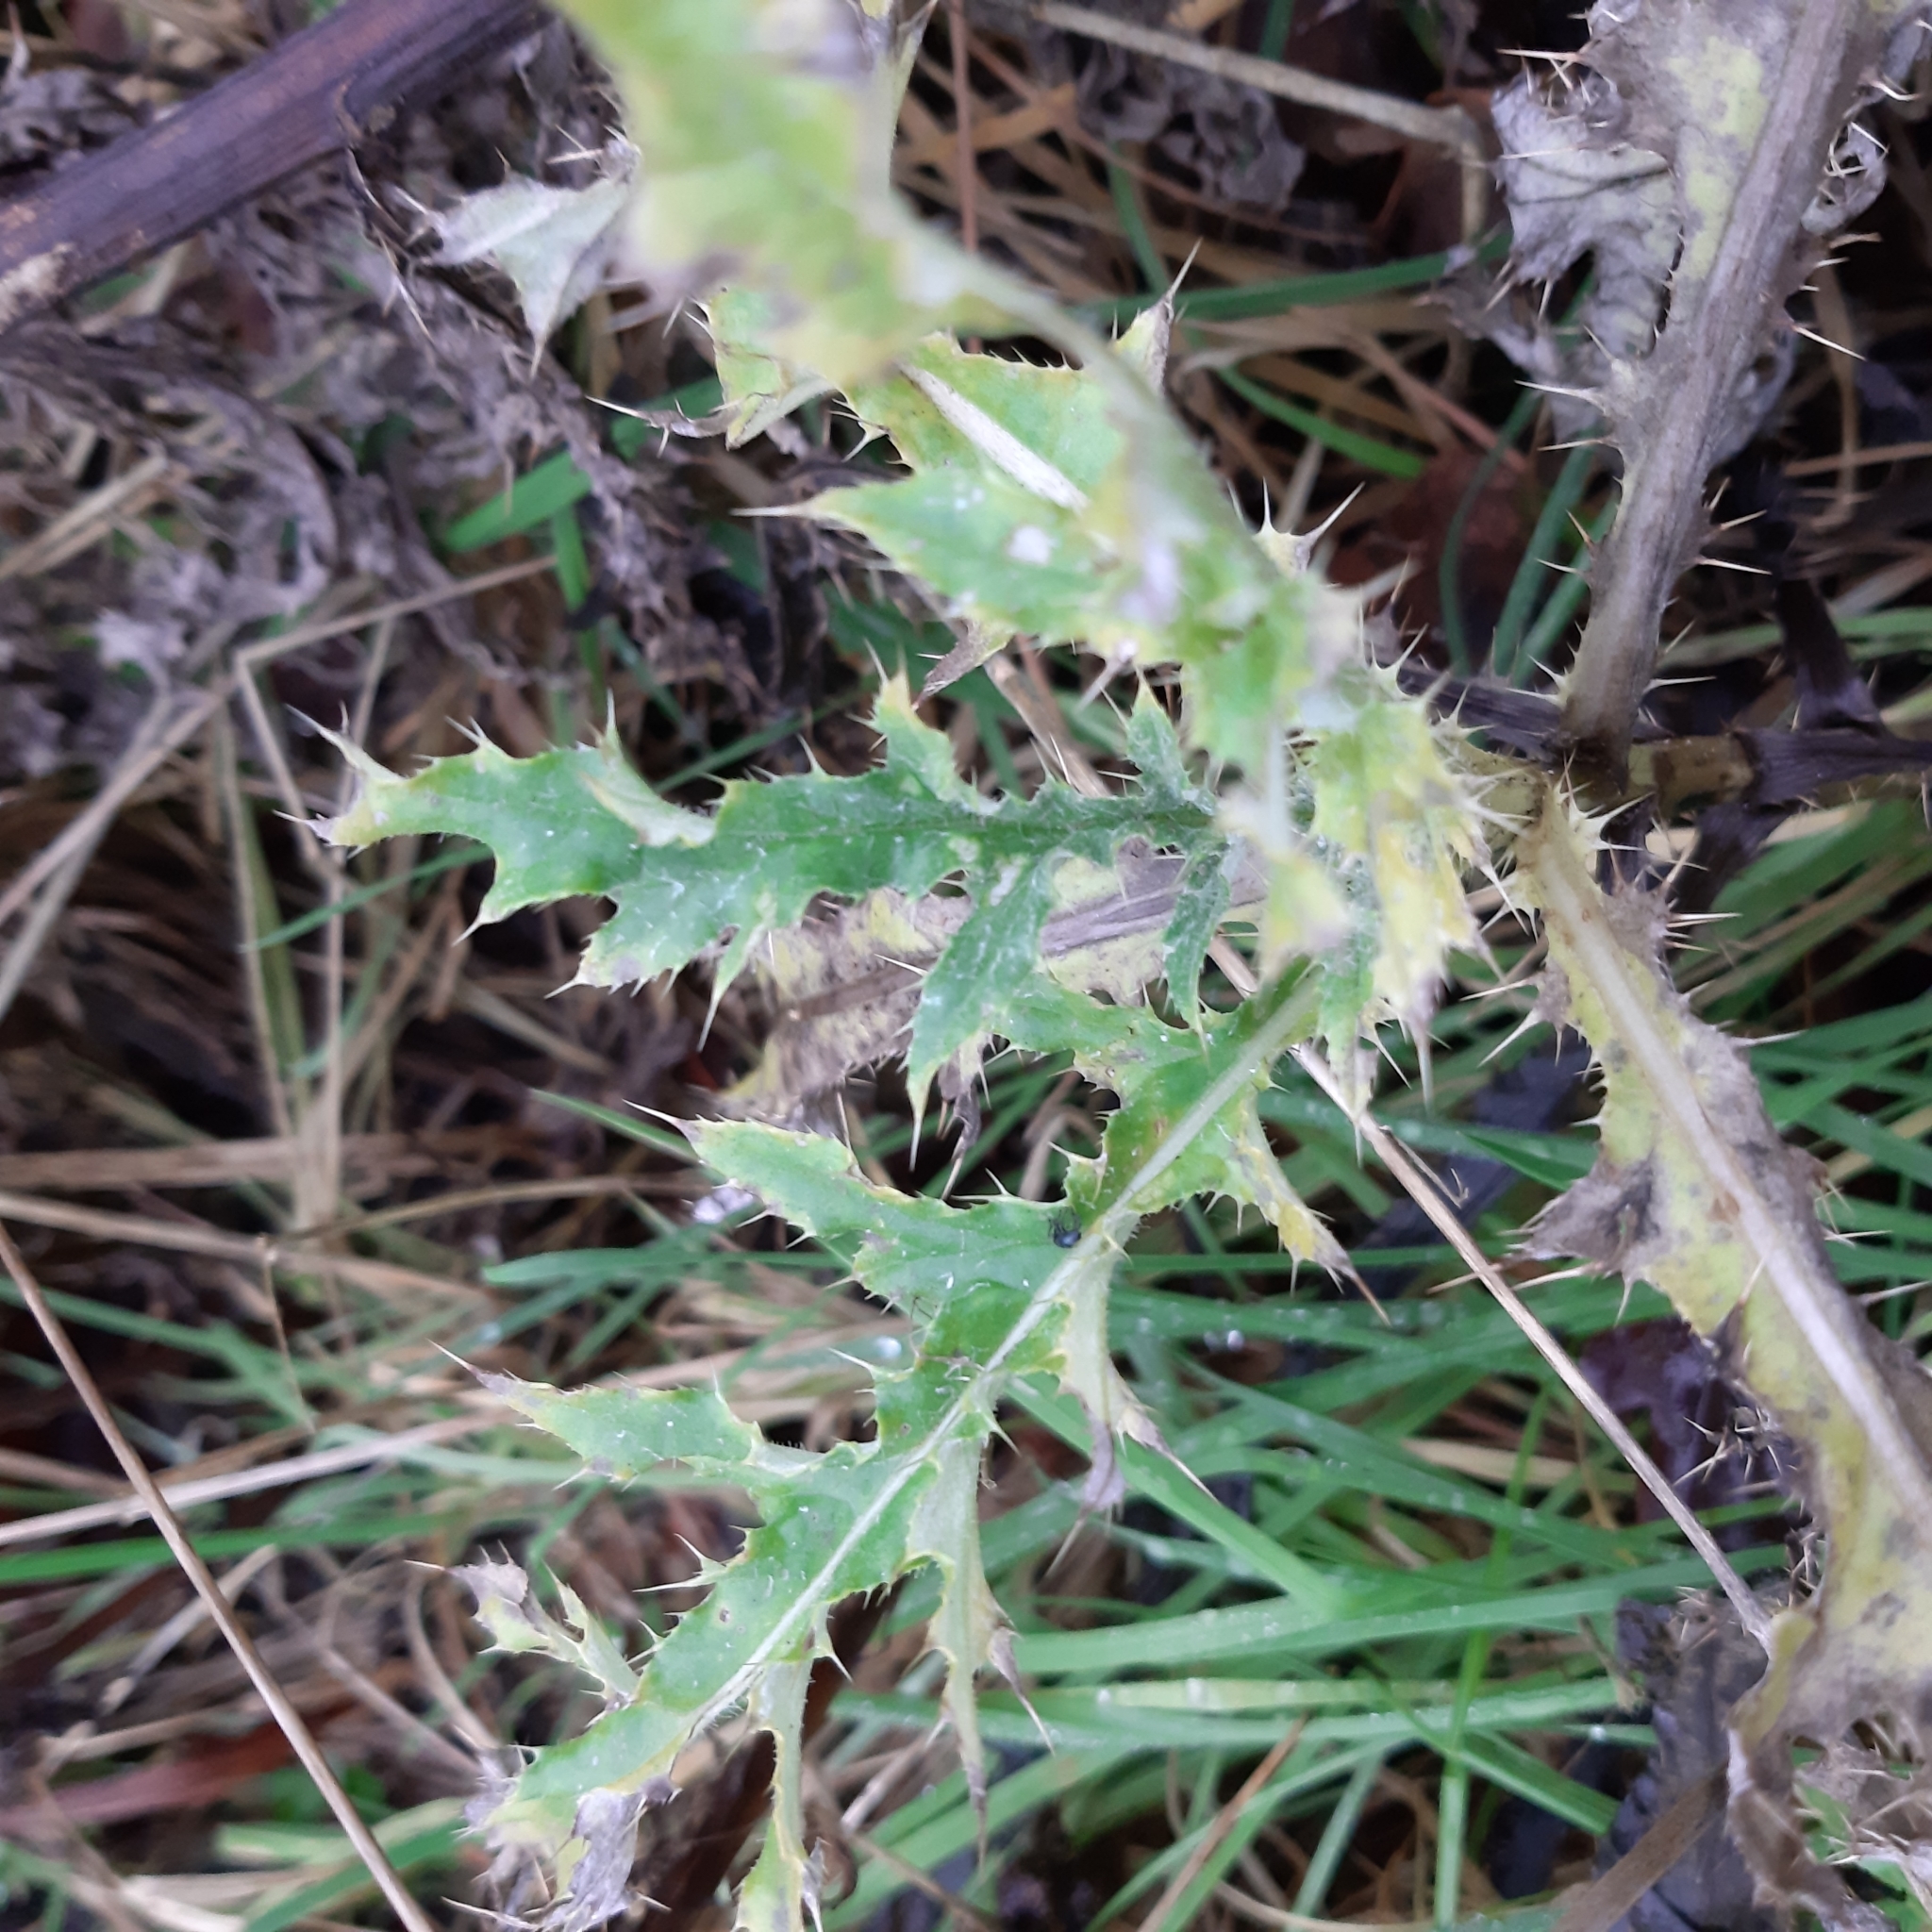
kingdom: Plantae
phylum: Tracheophyta
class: Magnoliopsida
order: Asterales
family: Asteraceae
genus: Cirsium
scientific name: Cirsium arvense
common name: Creeping thistle
